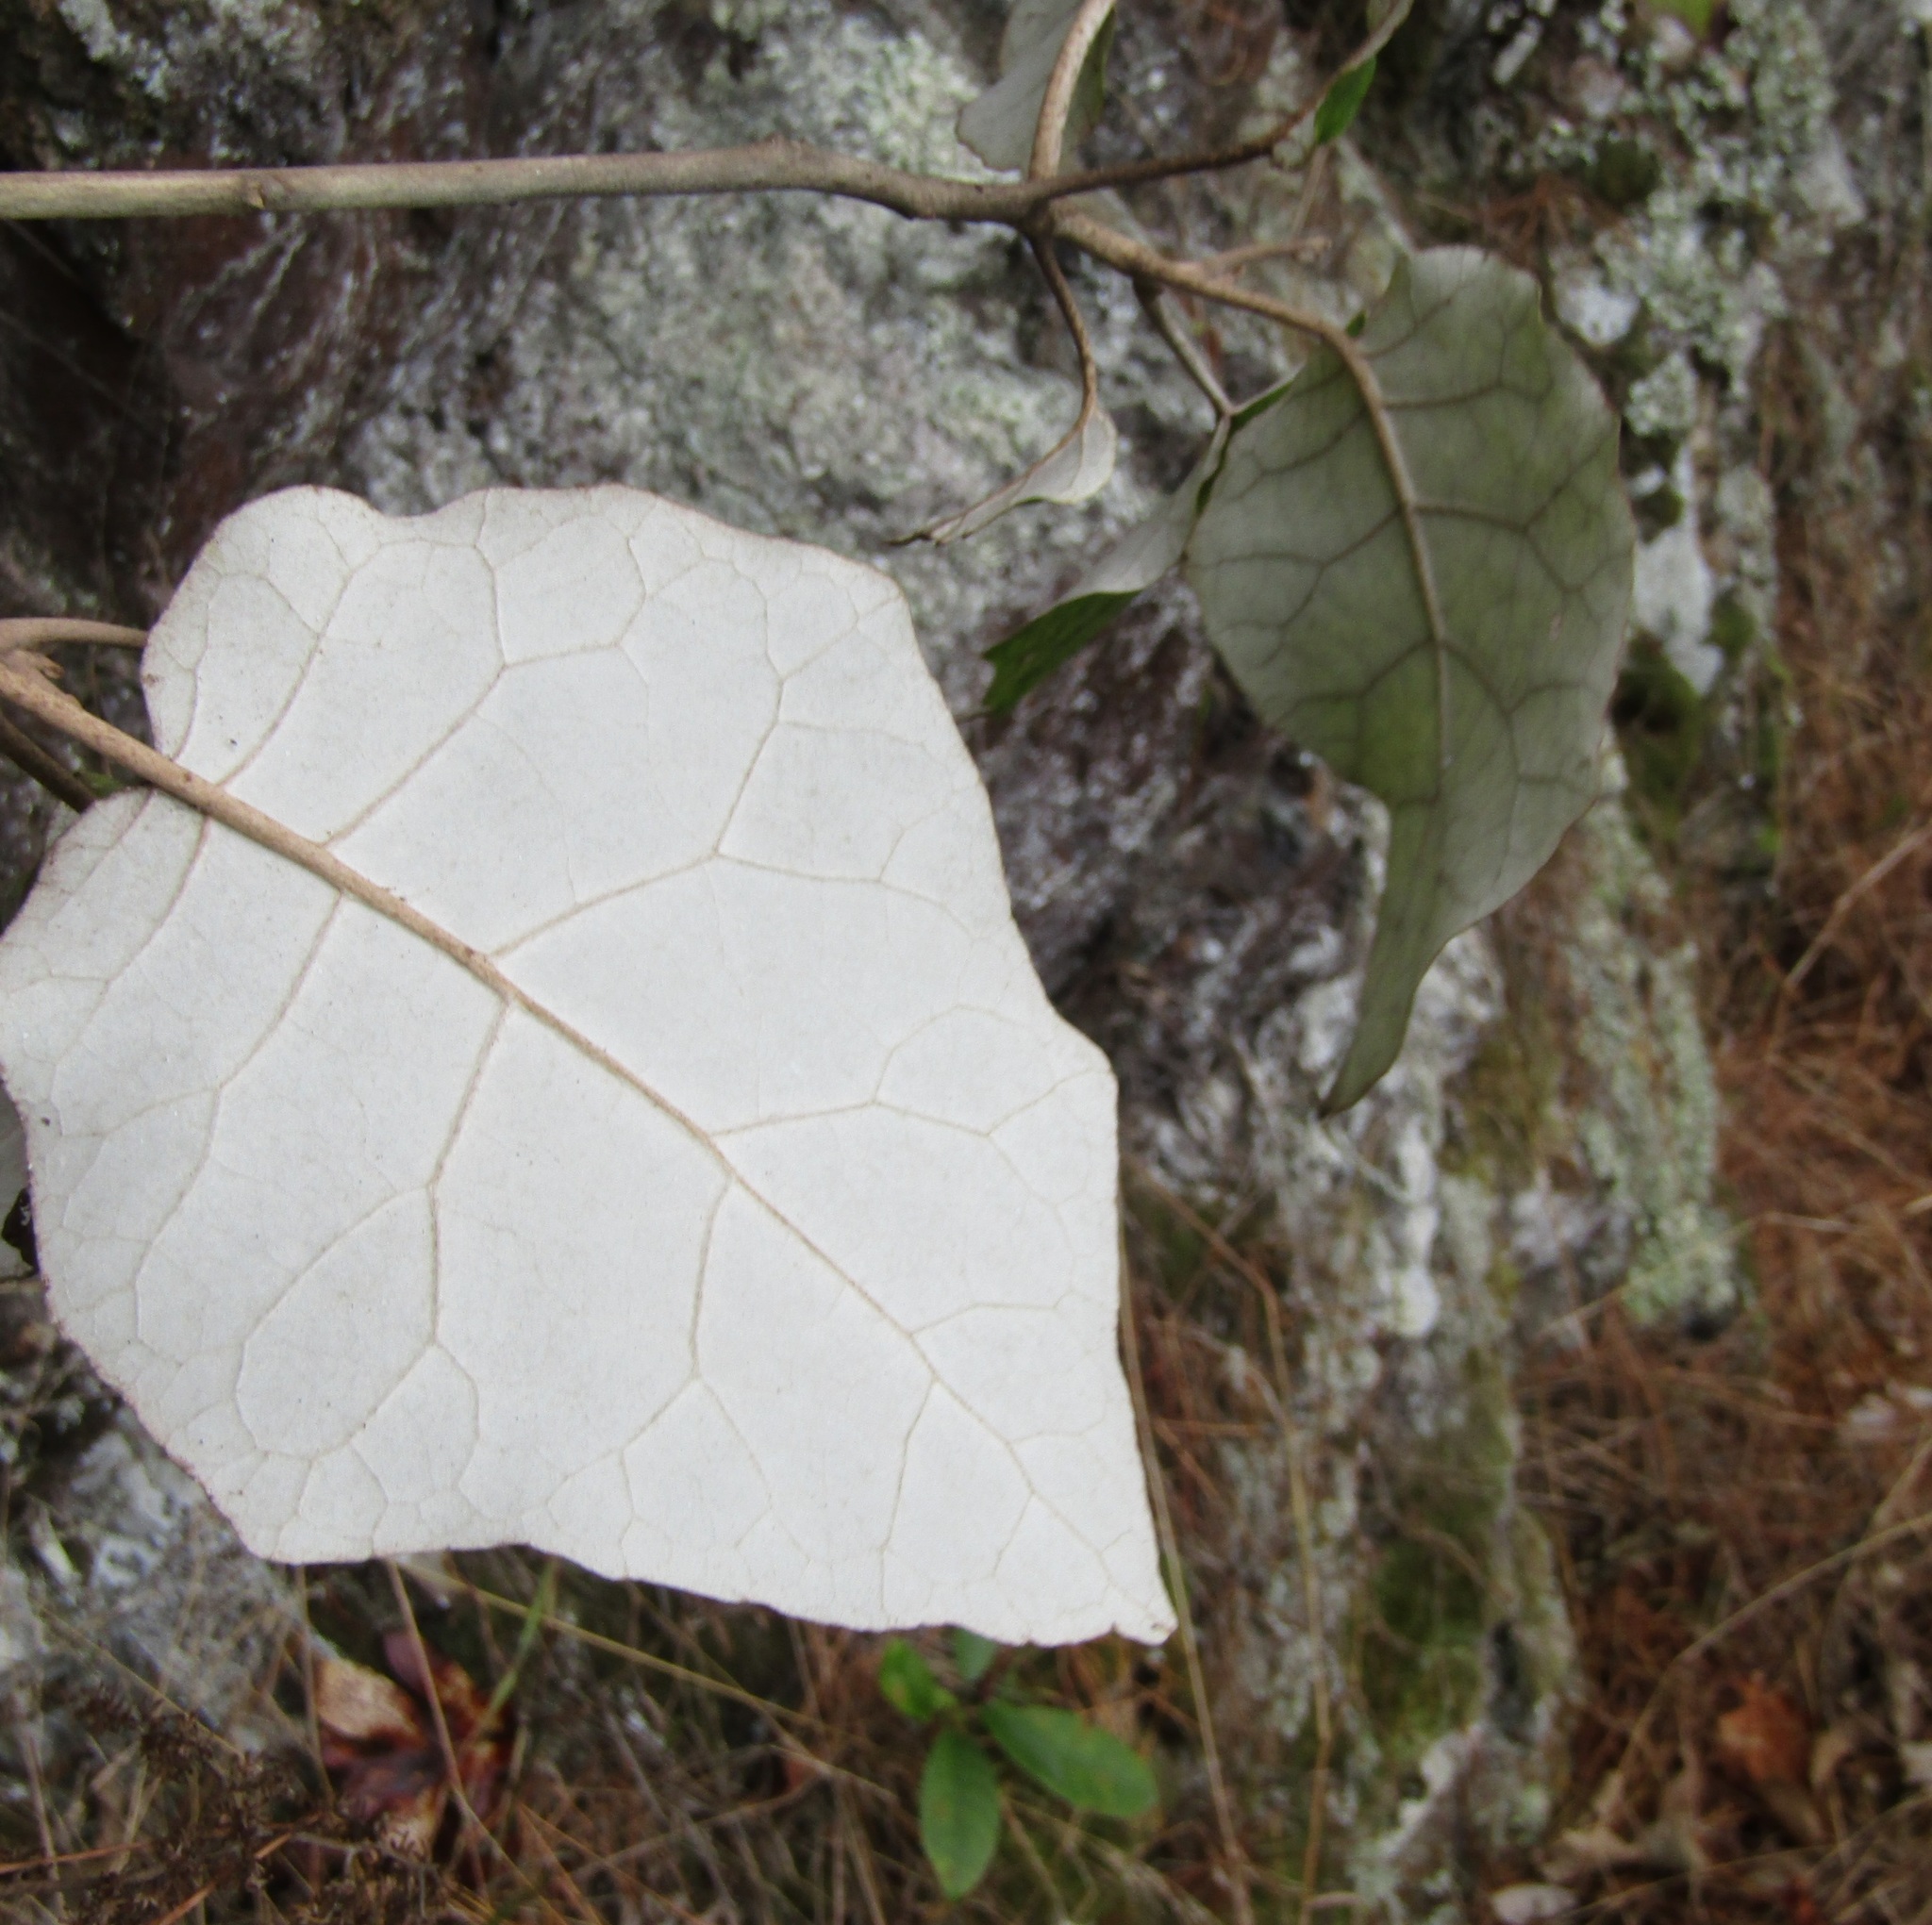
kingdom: Plantae
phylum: Tracheophyta
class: Magnoliopsida
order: Asterales
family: Asteraceae
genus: Brachyglottis
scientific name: Brachyglottis repanda
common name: Hedge ragwort
